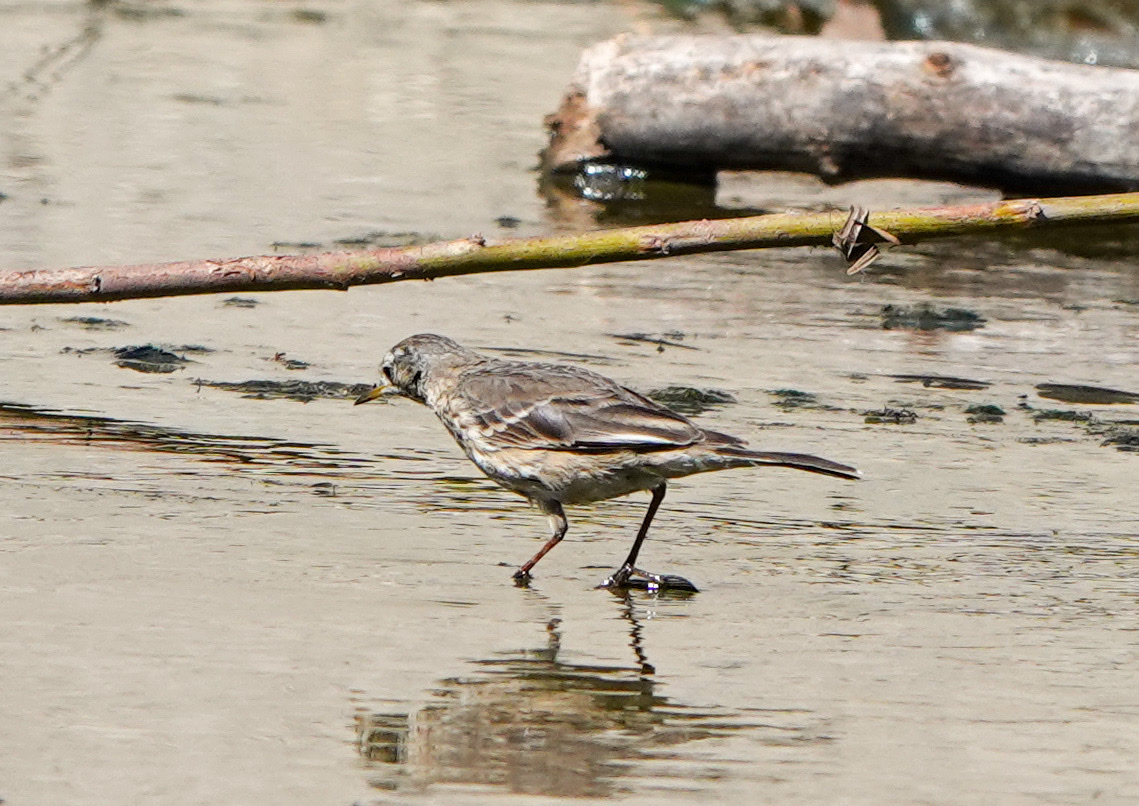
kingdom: Animalia
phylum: Chordata
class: Aves
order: Passeriformes
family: Motacillidae
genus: Anthus
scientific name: Anthus rubescens
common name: Buff-bellied pipit
